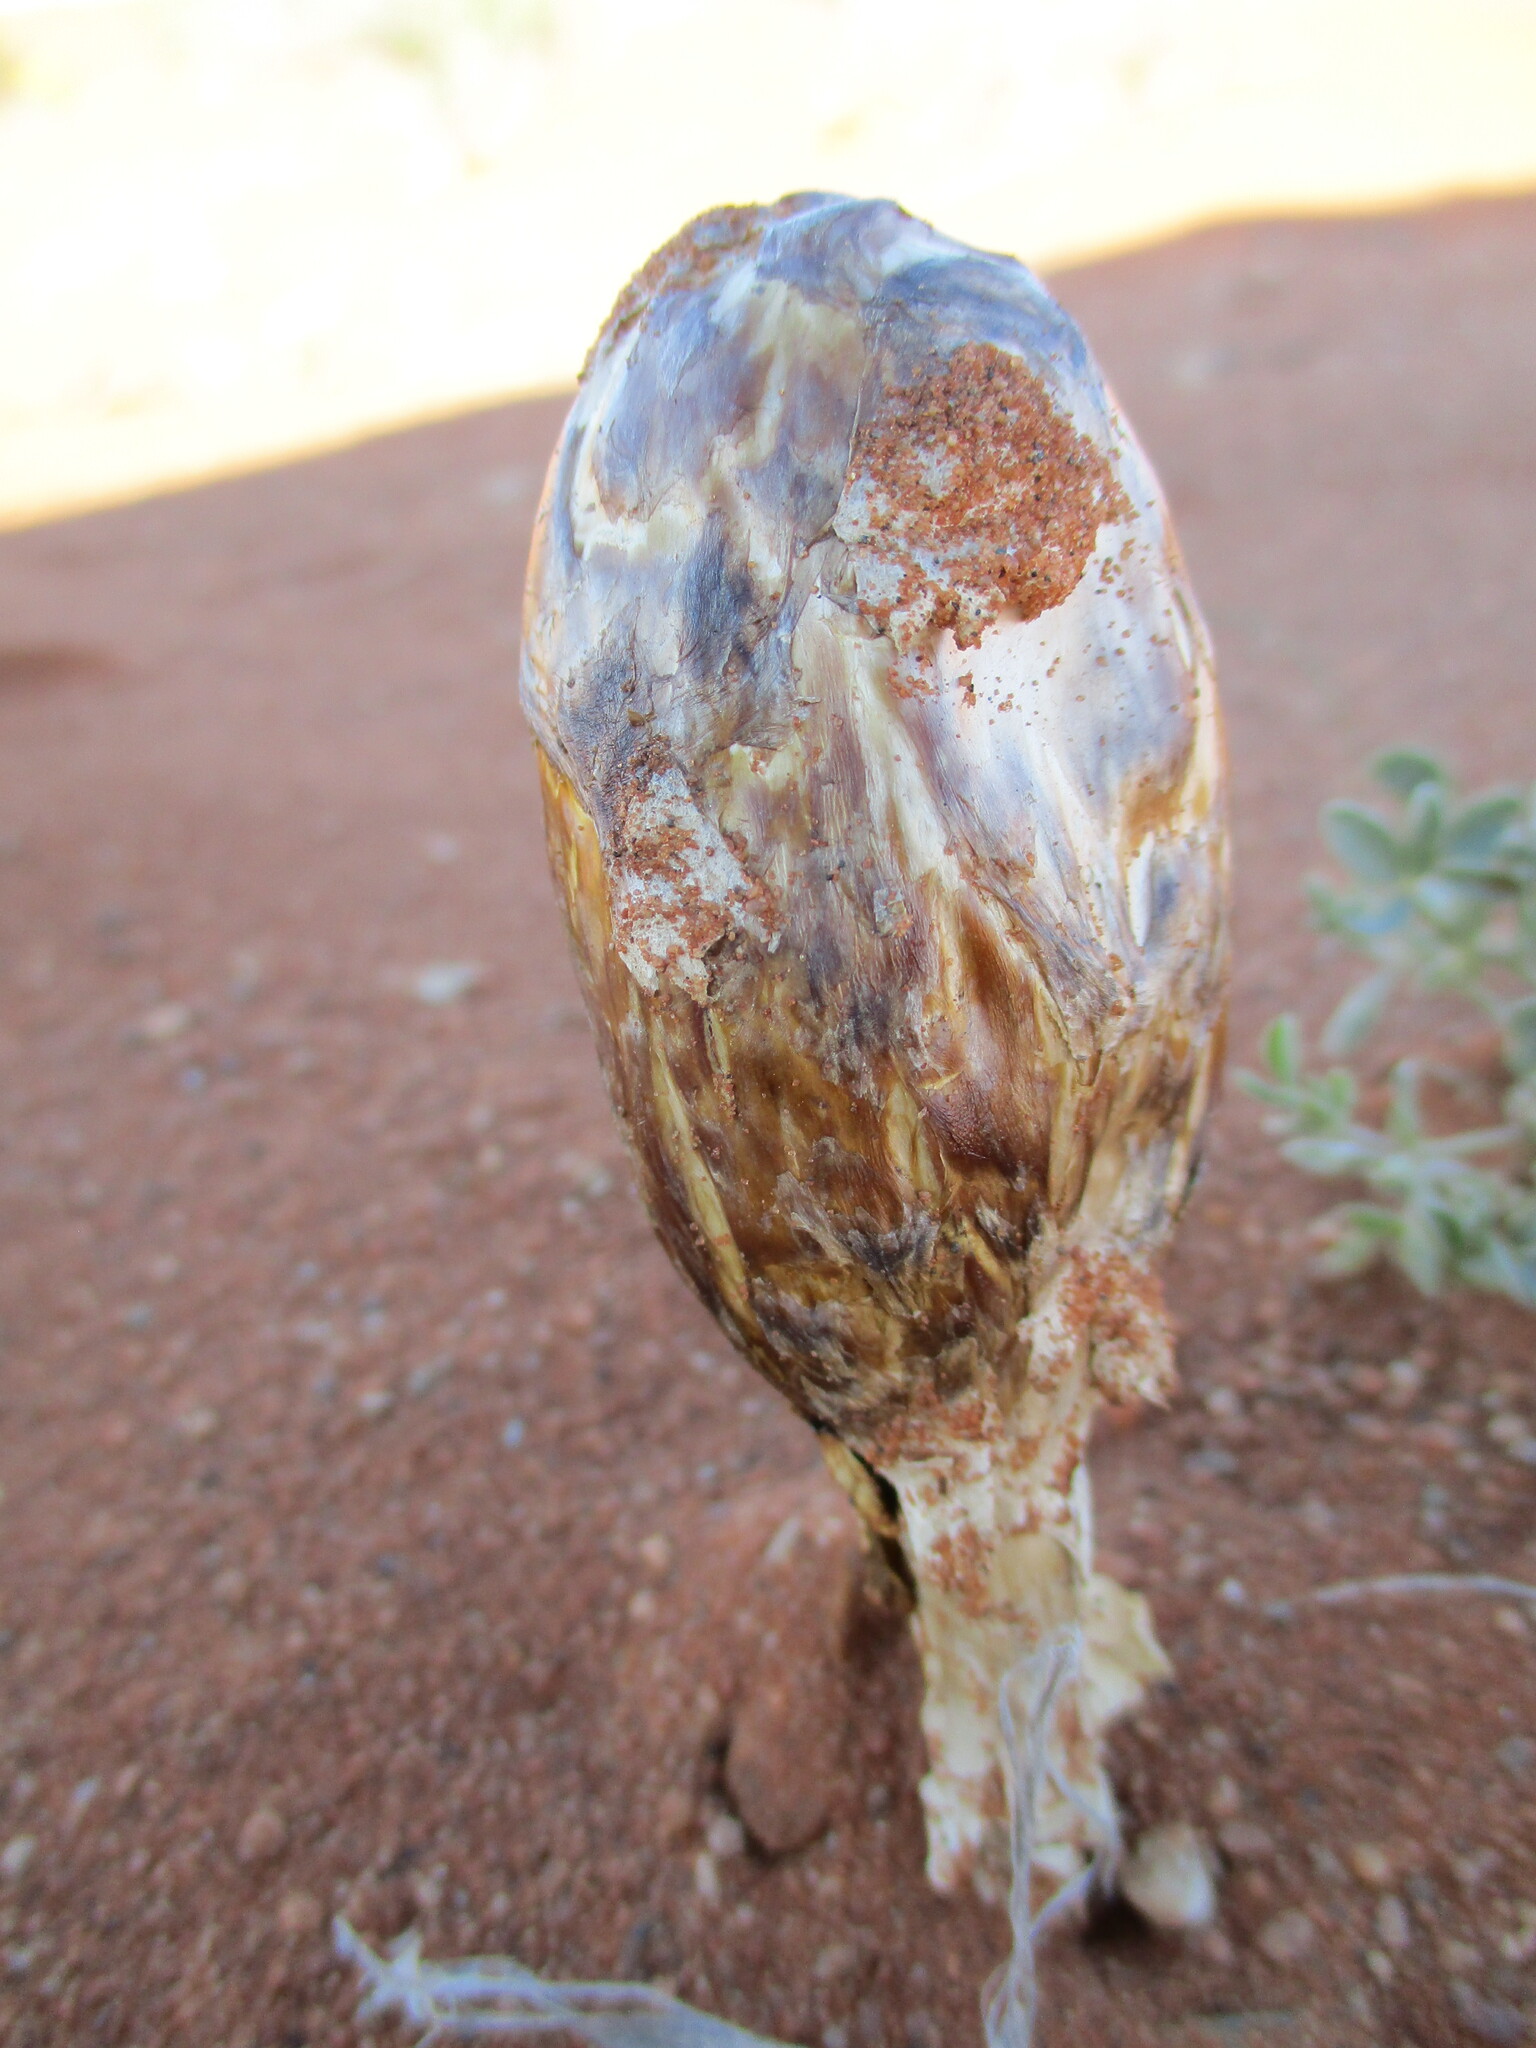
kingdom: Fungi
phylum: Basidiomycota
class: Agaricomycetes
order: Agaricales
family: Agaricaceae
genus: Podaxis
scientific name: Podaxis pistillaris
